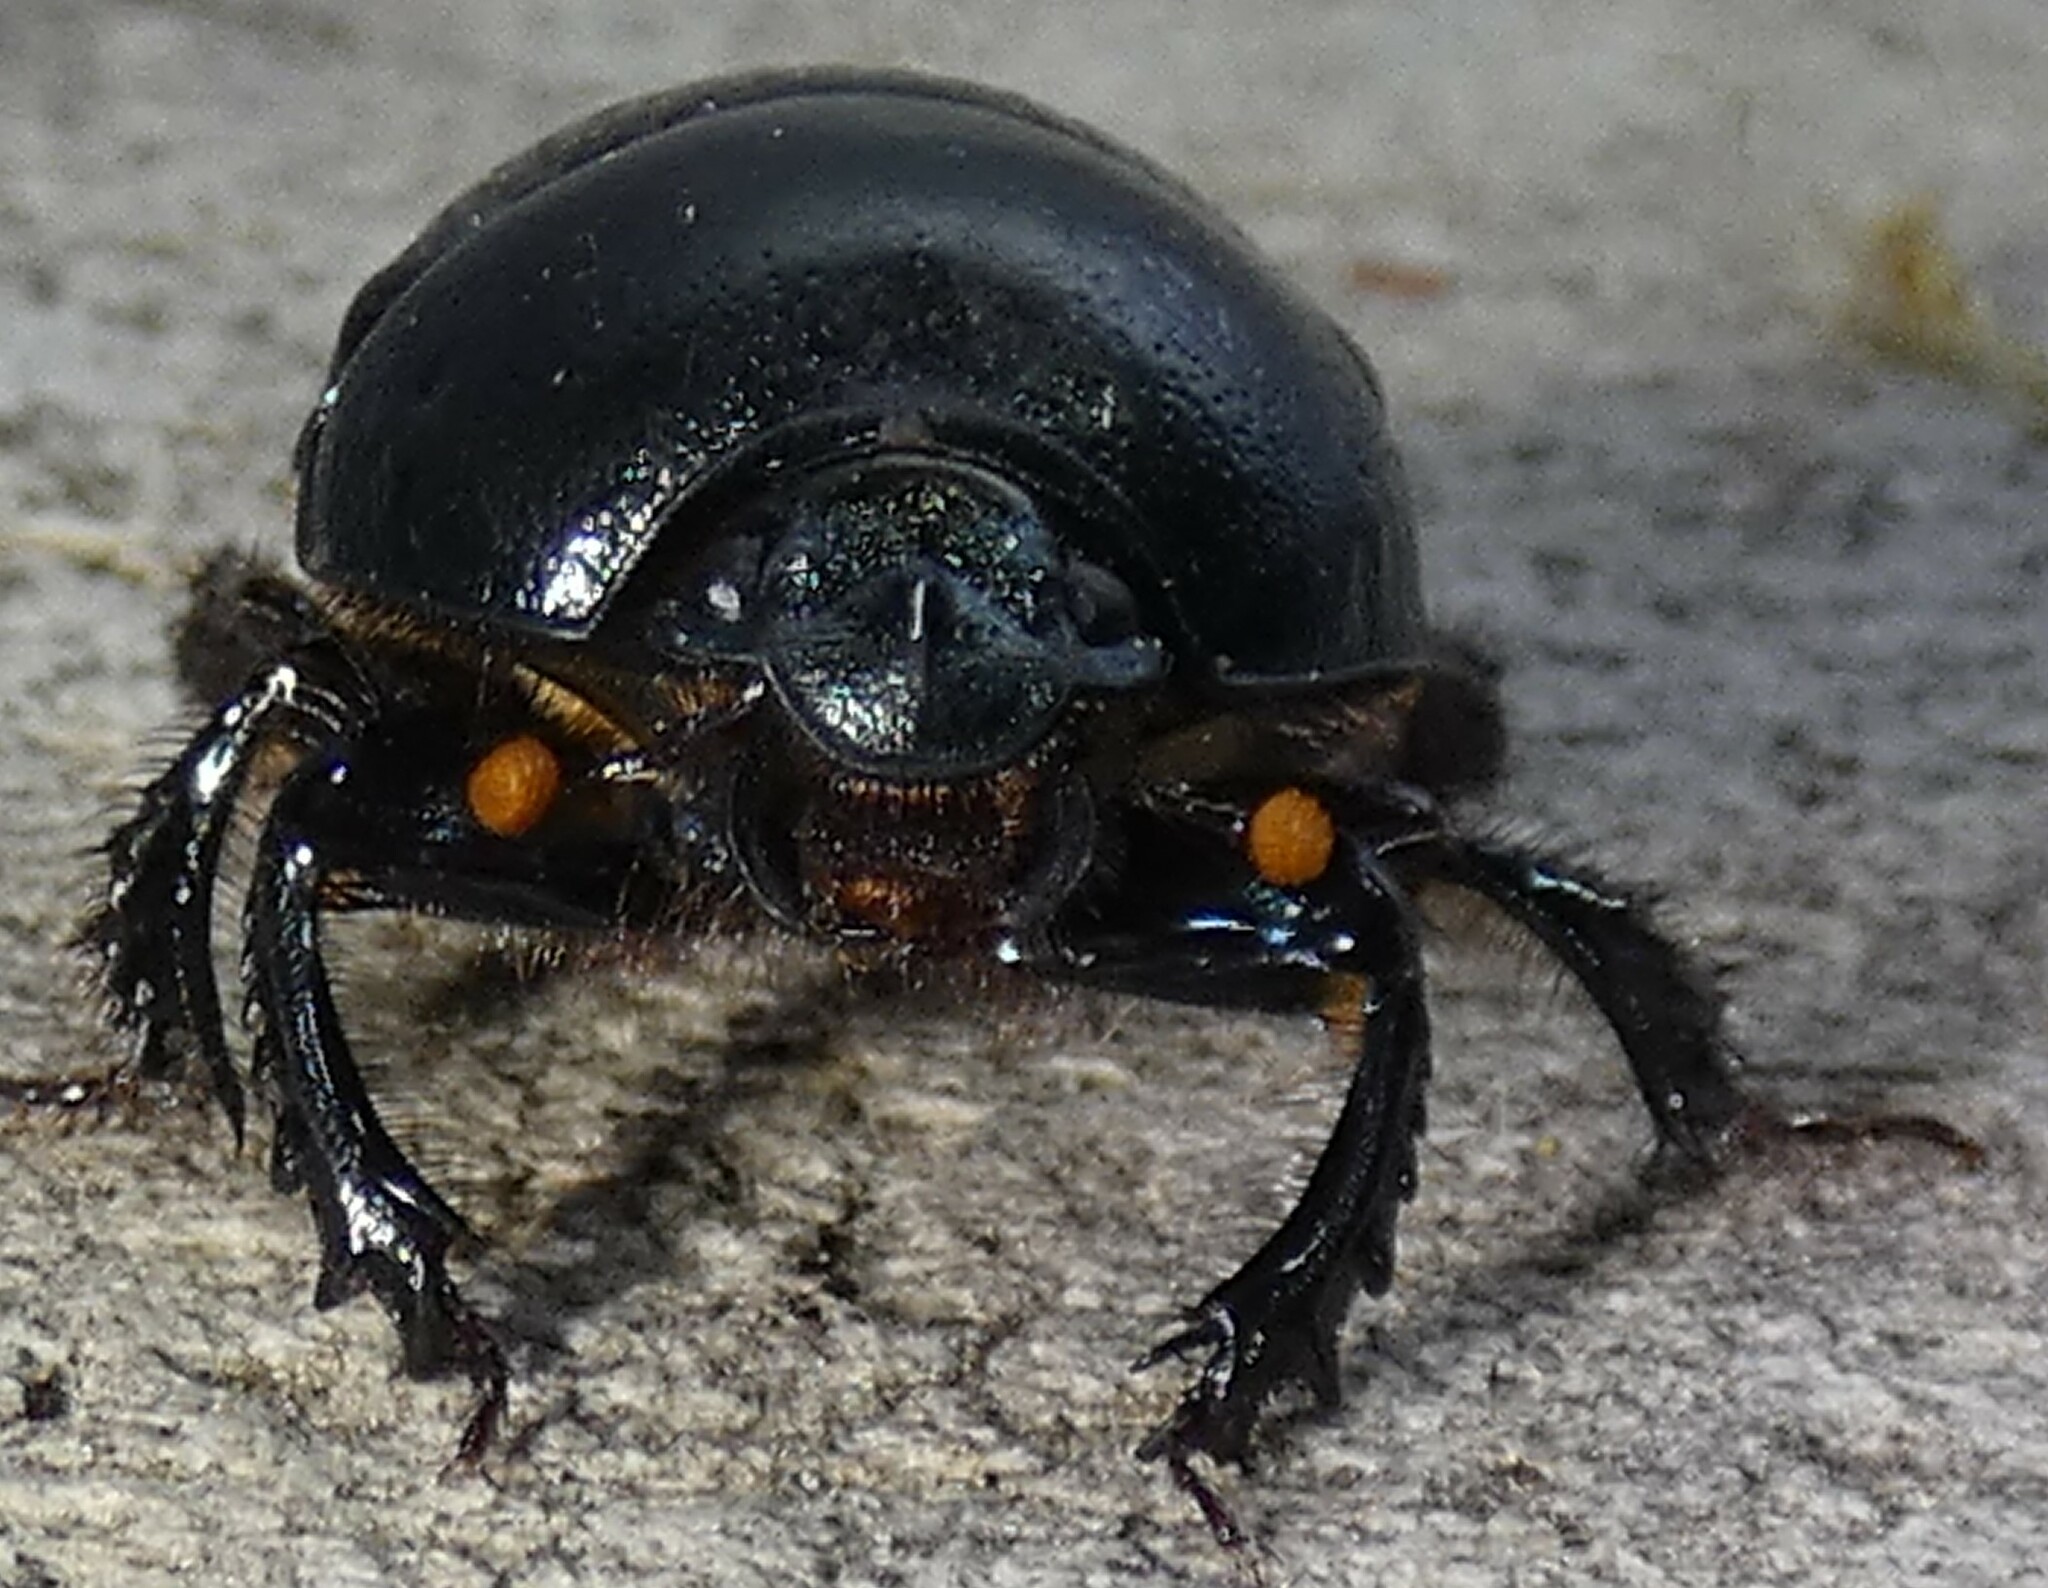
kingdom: Animalia
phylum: Arthropoda
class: Insecta
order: Coleoptera
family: Geotrupidae
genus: Geotrupes
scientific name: Geotrupes egeriei
